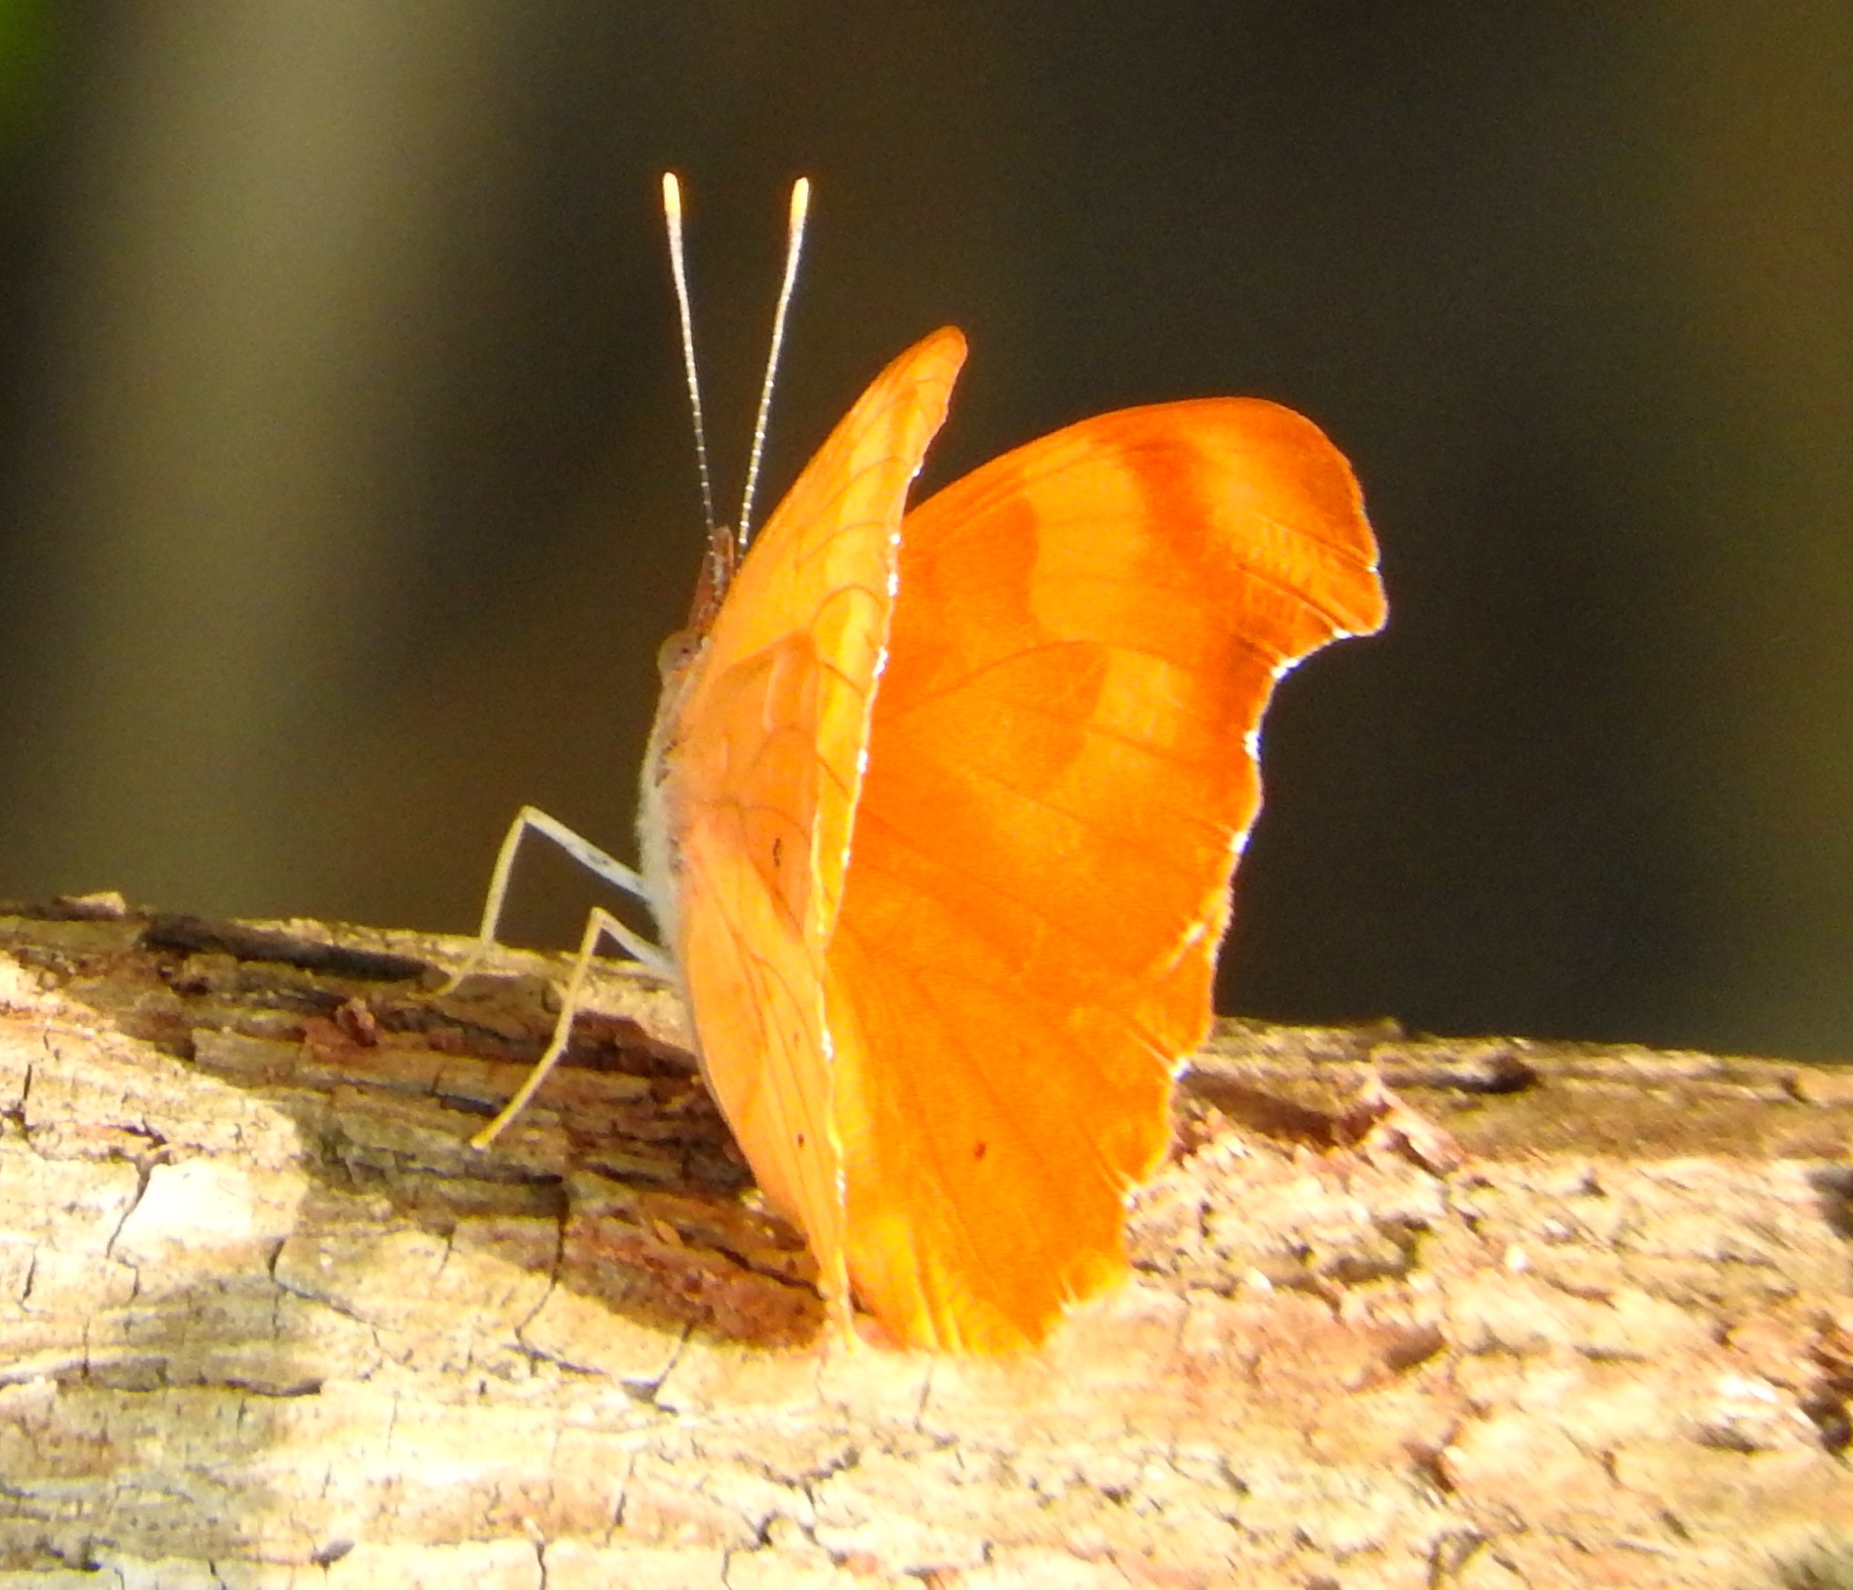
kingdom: Animalia
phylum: Arthropoda
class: Insecta
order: Lepidoptera
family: Nymphalidae
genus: Temenis
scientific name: Temenis laothoe
